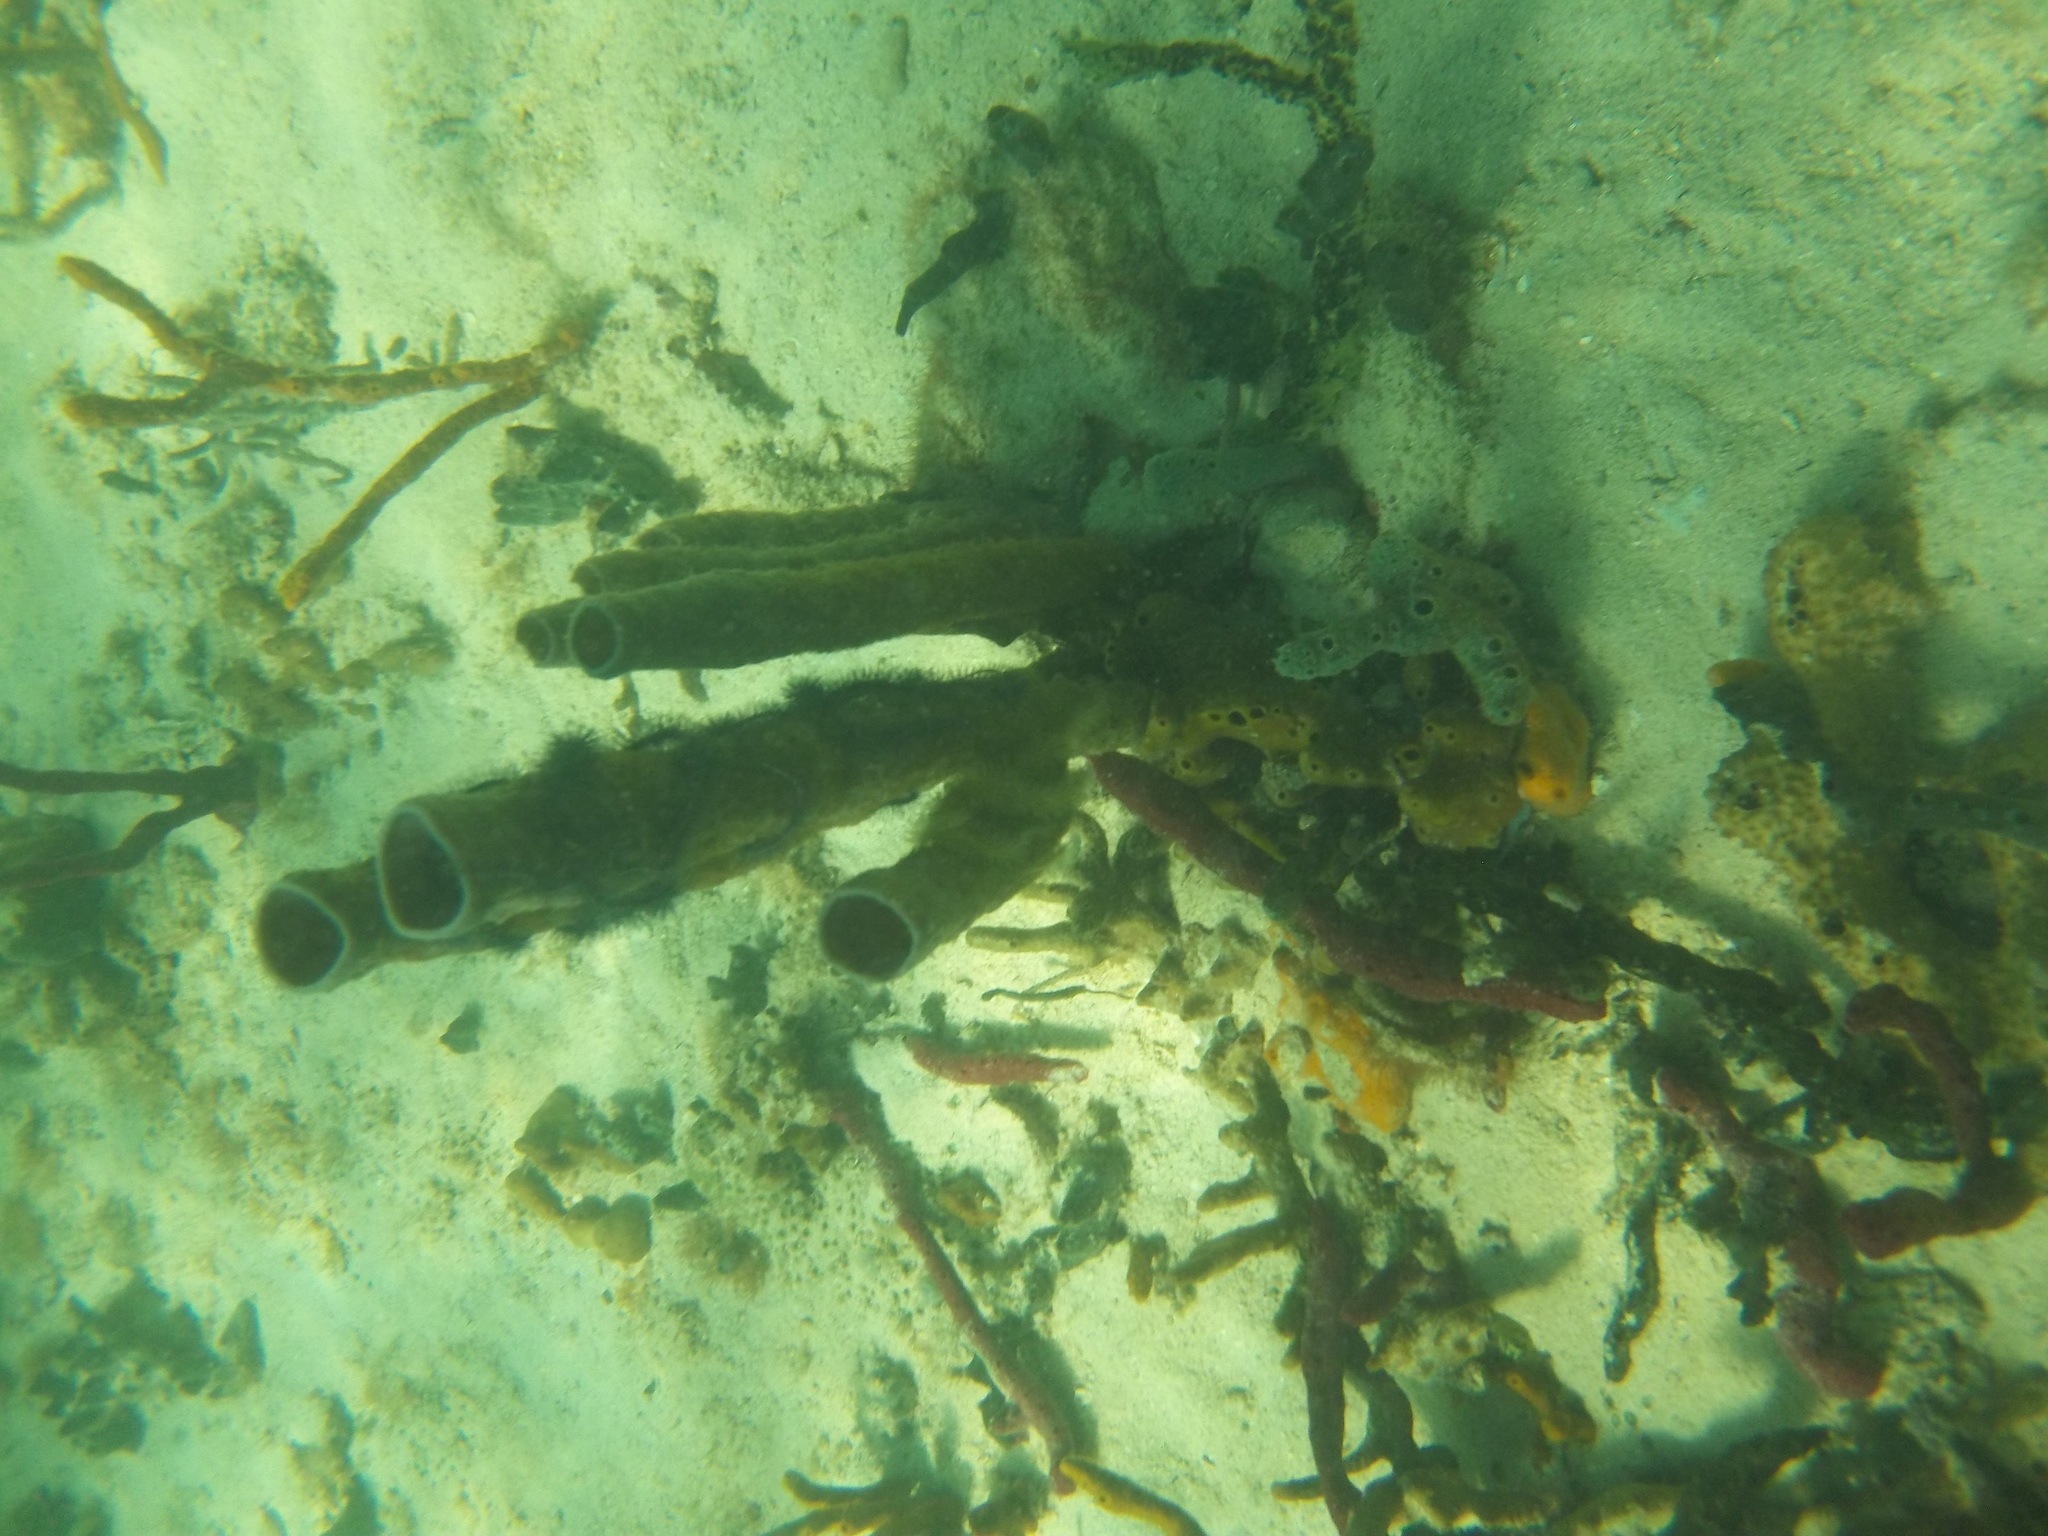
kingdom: Animalia
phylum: Porifera
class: Demospongiae
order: Haplosclerida
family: Callyspongiidae
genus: Callyspongia
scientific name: Callyspongia aculeata
